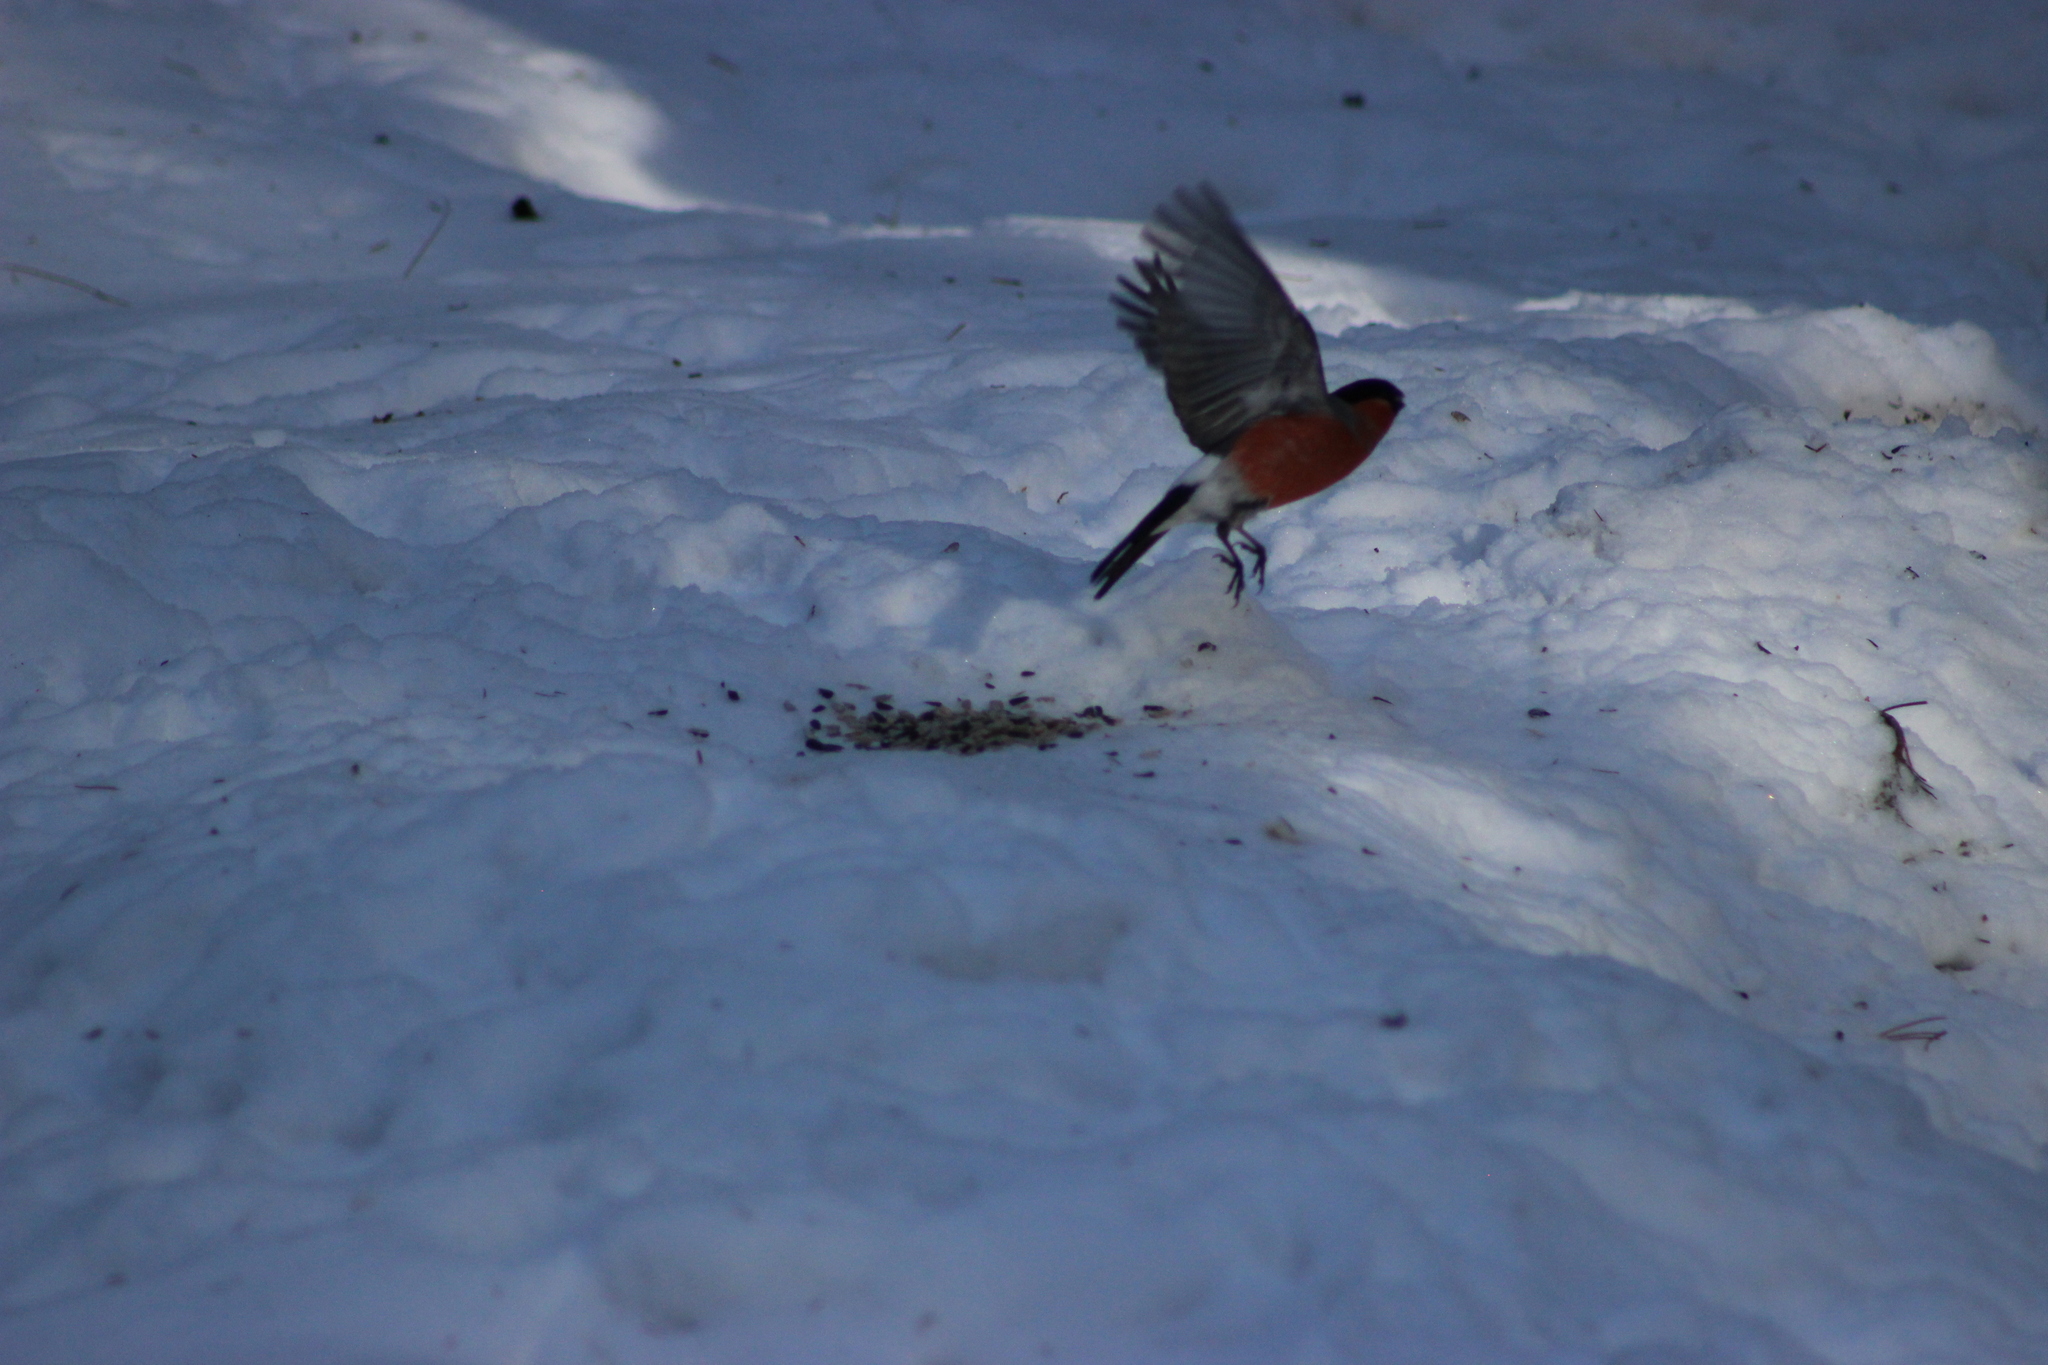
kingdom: Animalia
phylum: Chordata
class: Aves
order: Passeriformes
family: Fringillidae
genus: Pyrrhula
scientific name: Pyrrhula pyrrhula
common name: Eurasian bullfinch
